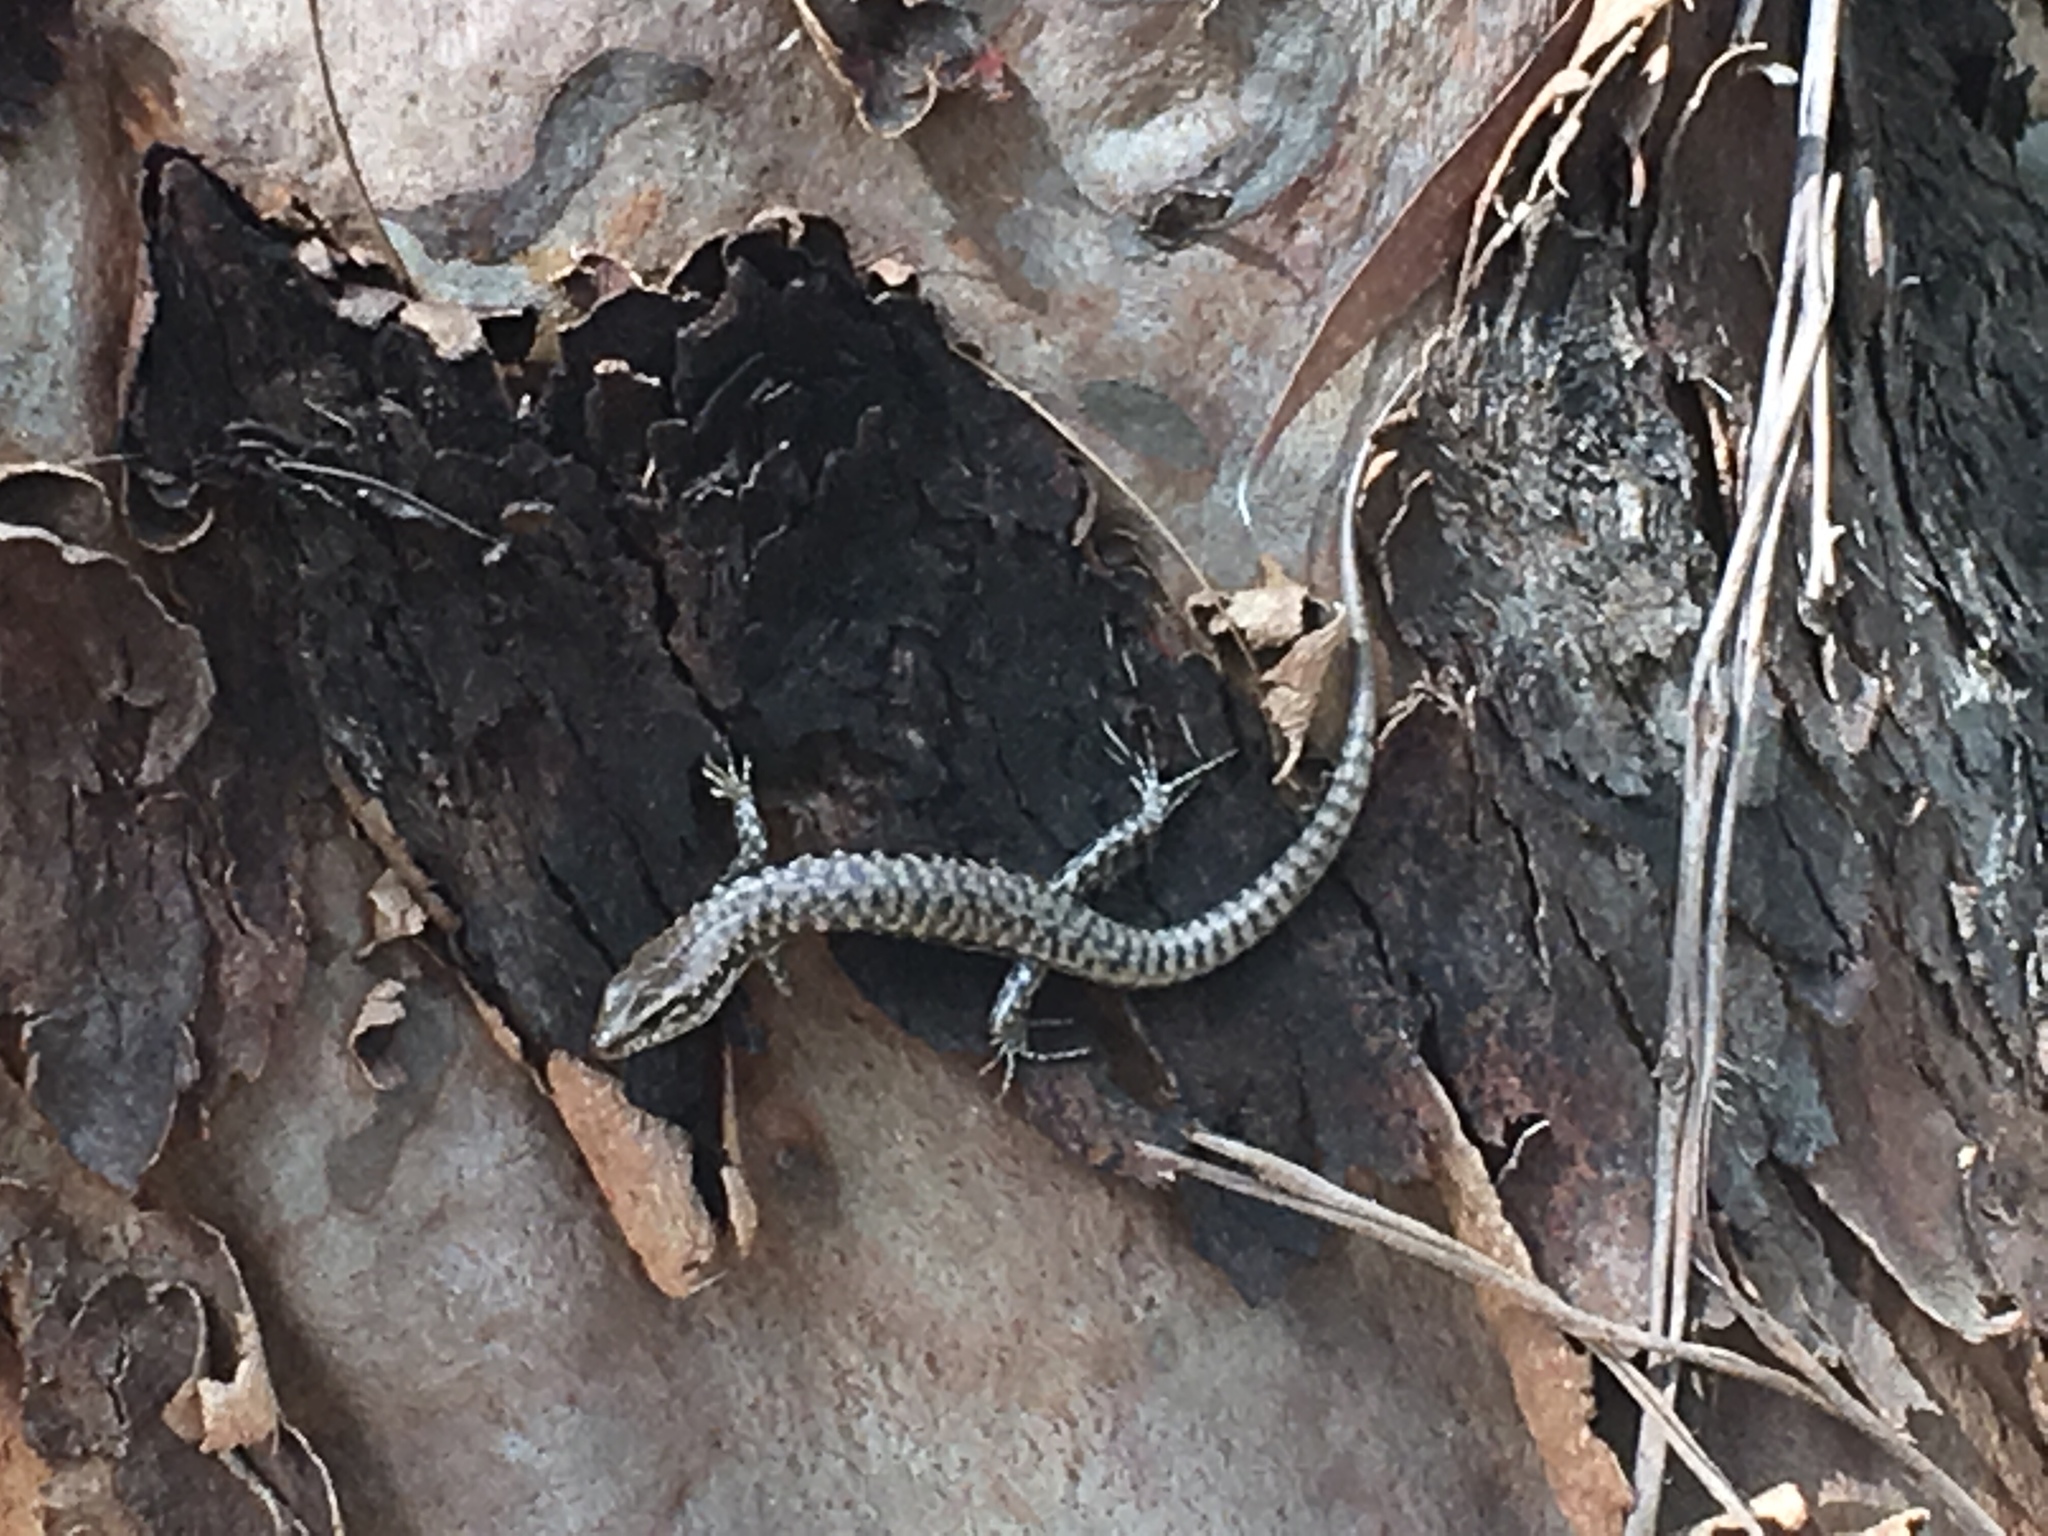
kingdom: Animalia
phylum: Chordata
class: Squamata
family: Scincidae
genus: Concinnia
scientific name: Concinnia tenuis
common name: Bar-sided forest-skink
